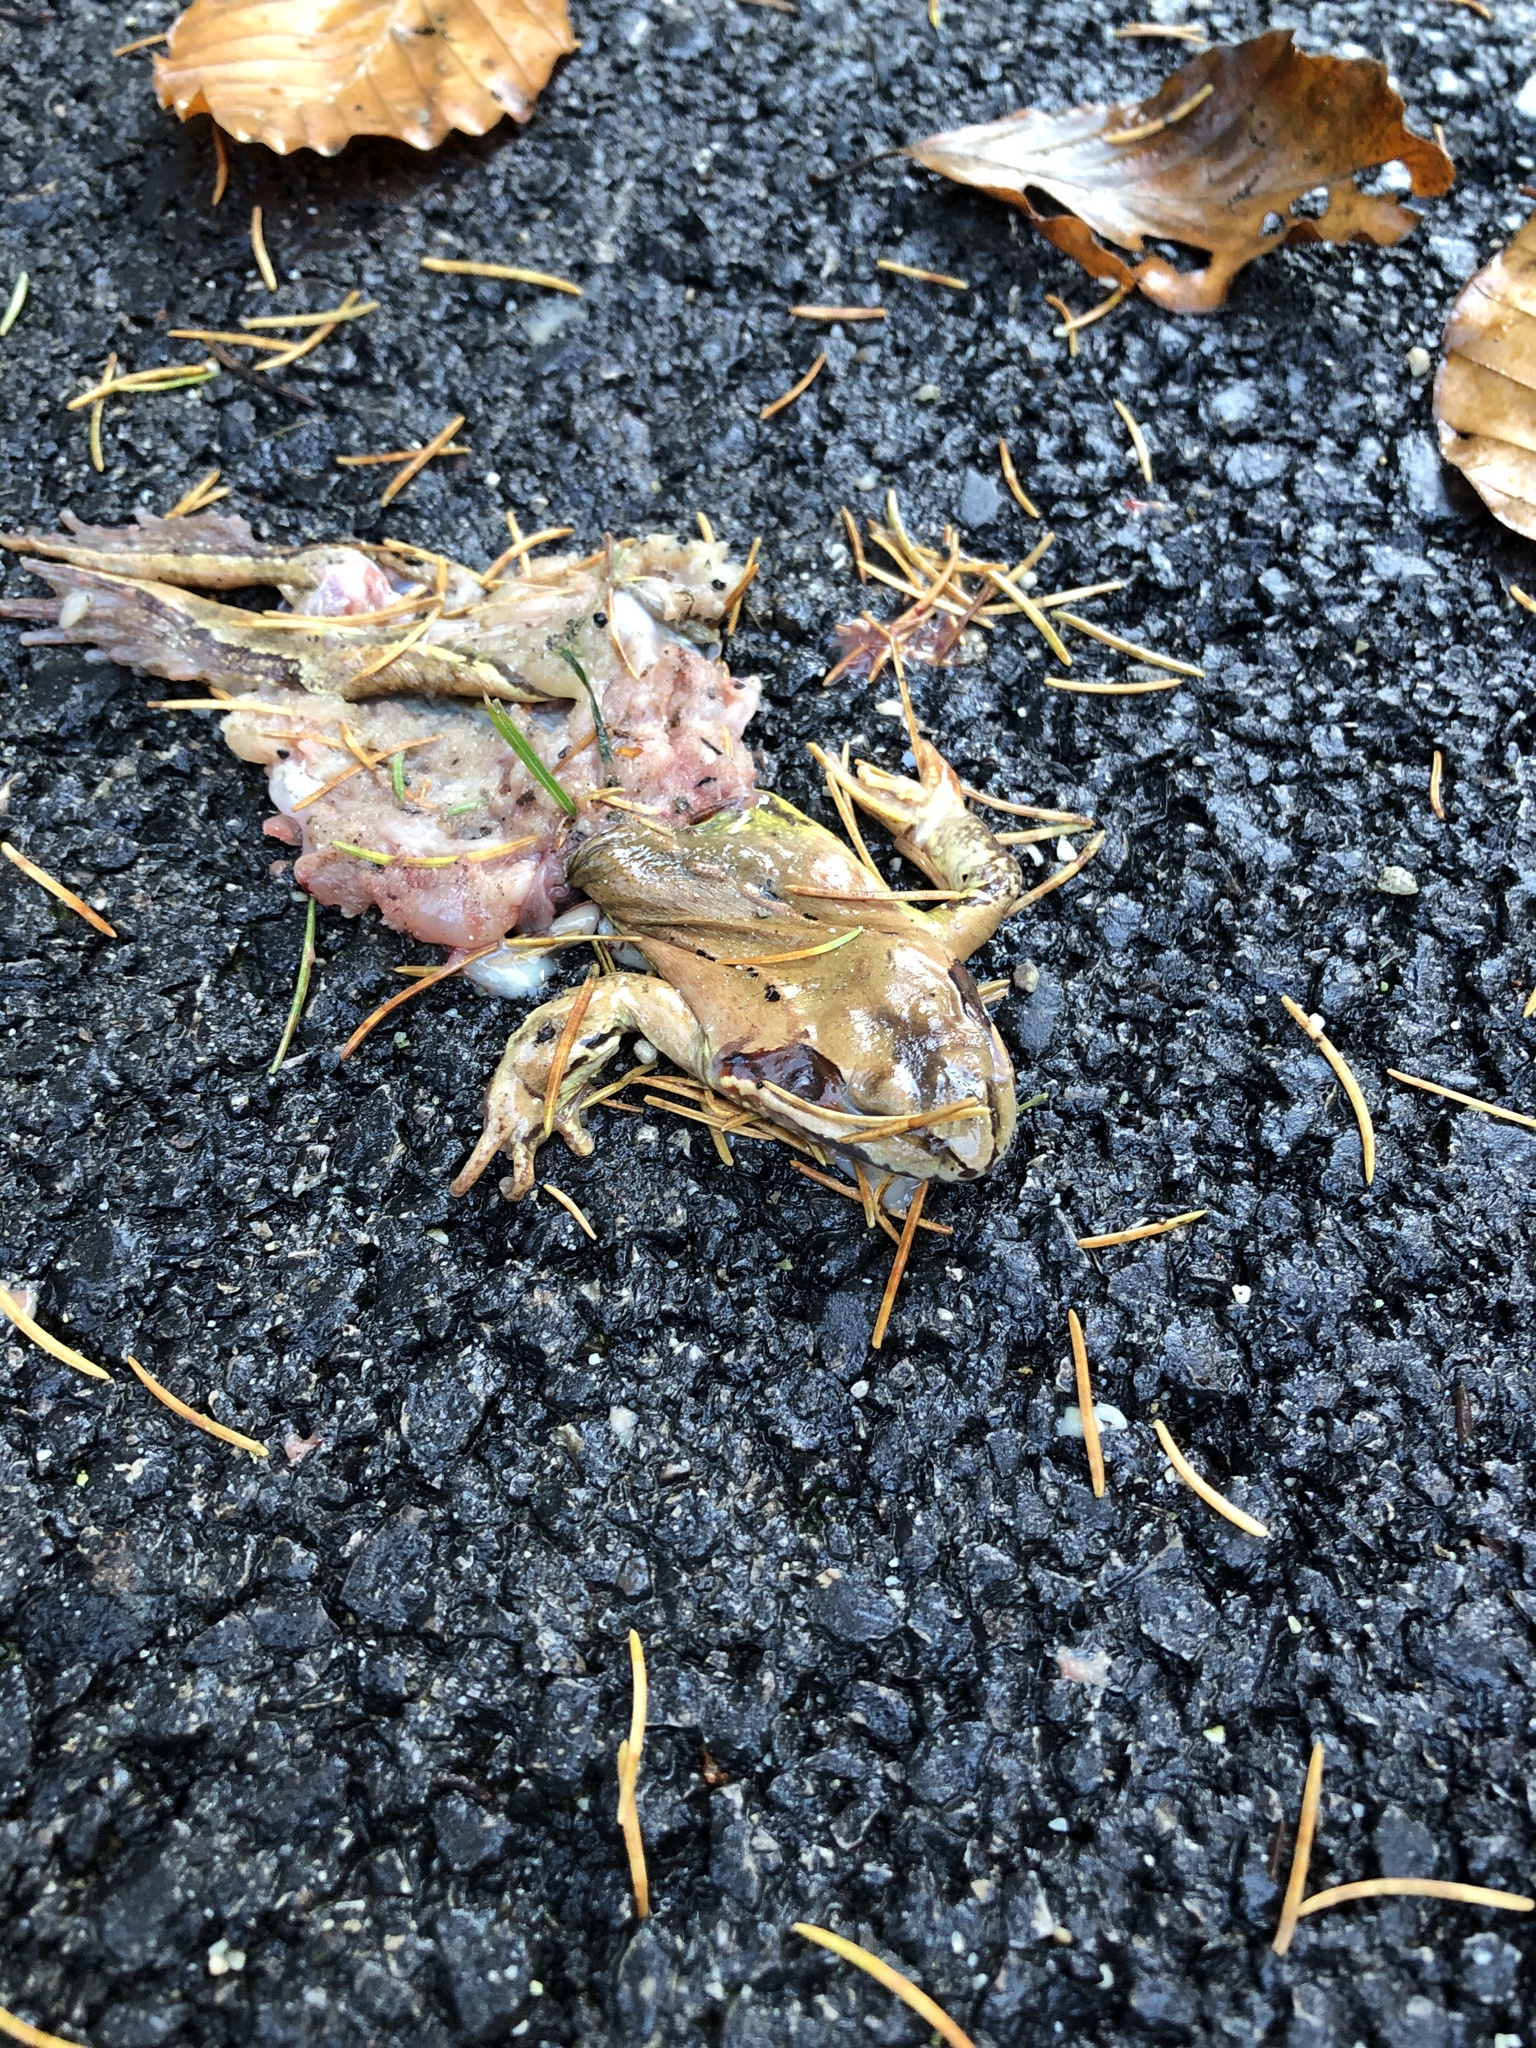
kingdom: Animalia
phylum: Chordata
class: Amphibia
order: Anura
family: Ranidae
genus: Rana
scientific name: Rana temporaria
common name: Common frog
